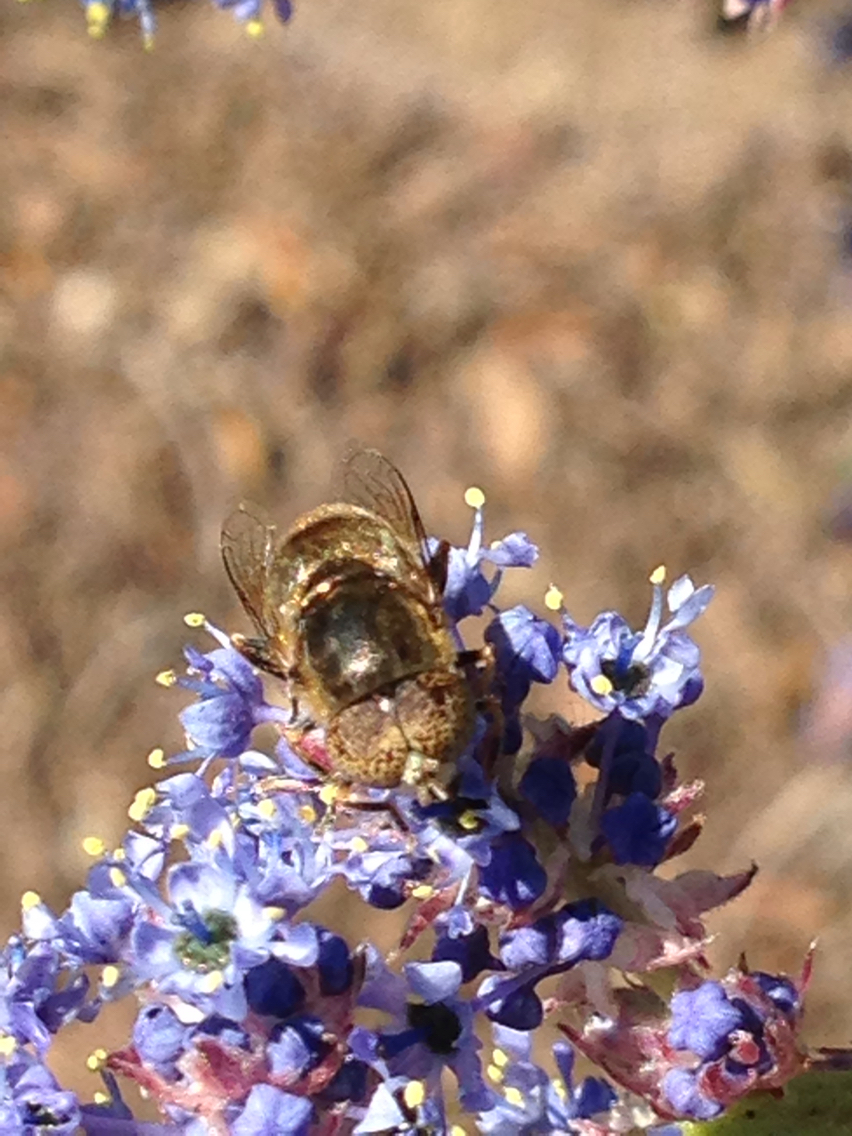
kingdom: Animalia
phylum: Arthropoda
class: Insecta
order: Diptera
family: Syrphidae
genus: Eristalinus
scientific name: Eristalinus aeneus
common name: Syrphid fly
